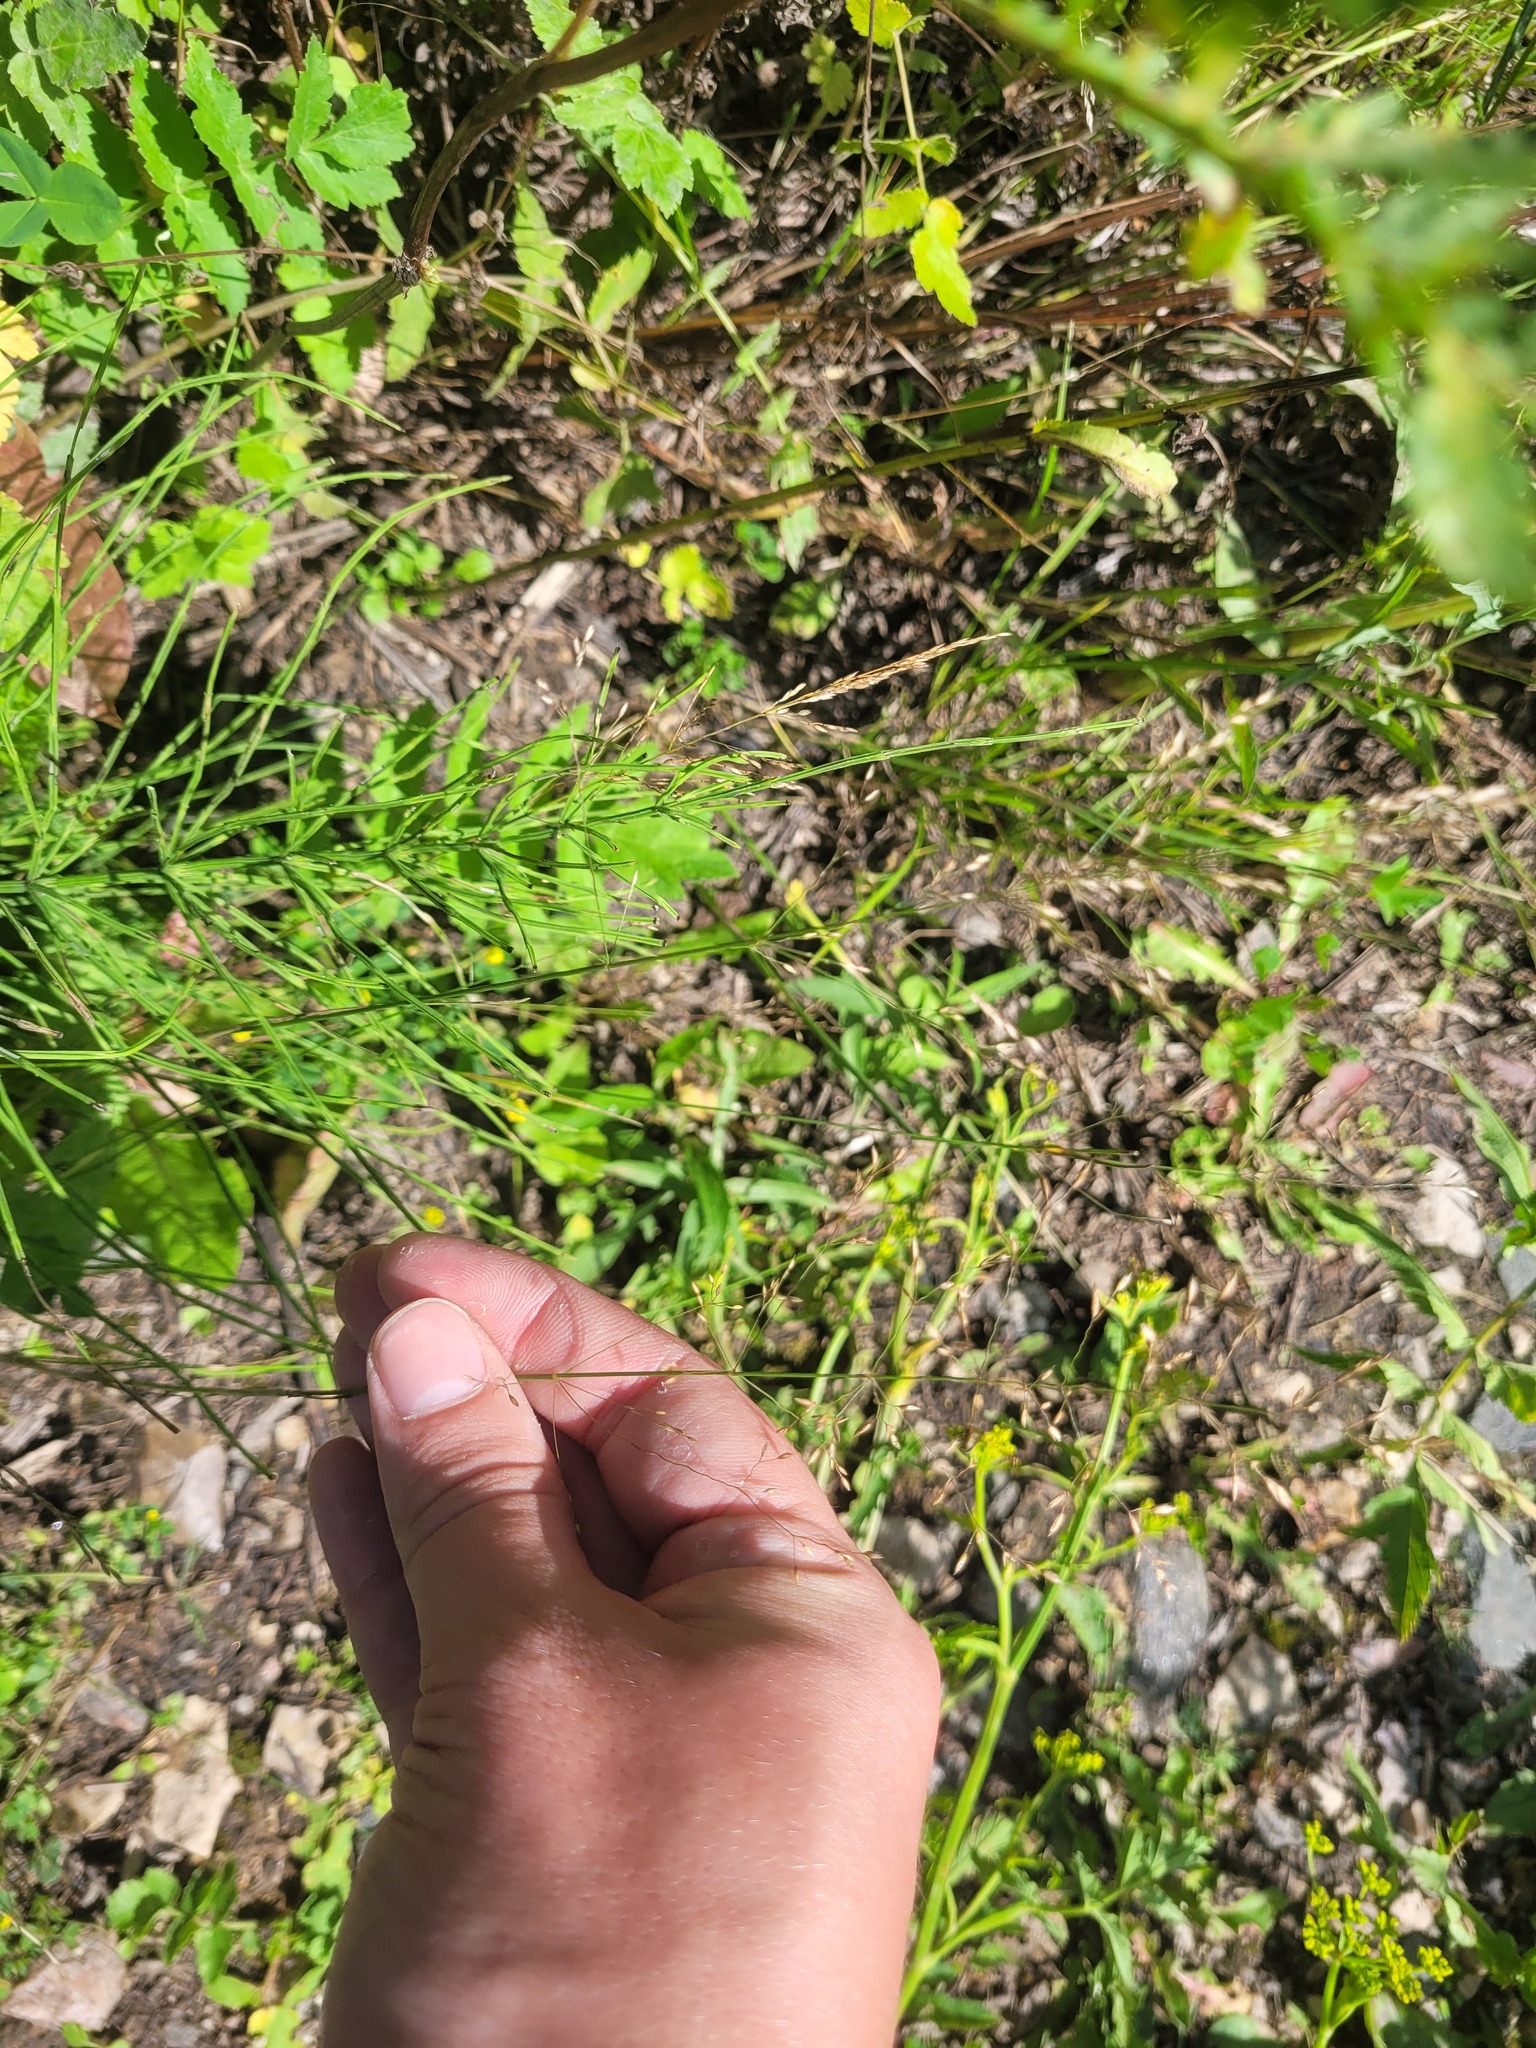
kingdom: Plantae
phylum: Tracheophyta
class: Liliopsida
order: Poales
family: Poaceae
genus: Poa
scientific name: Poa palustris
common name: Swamp meadow-grass
